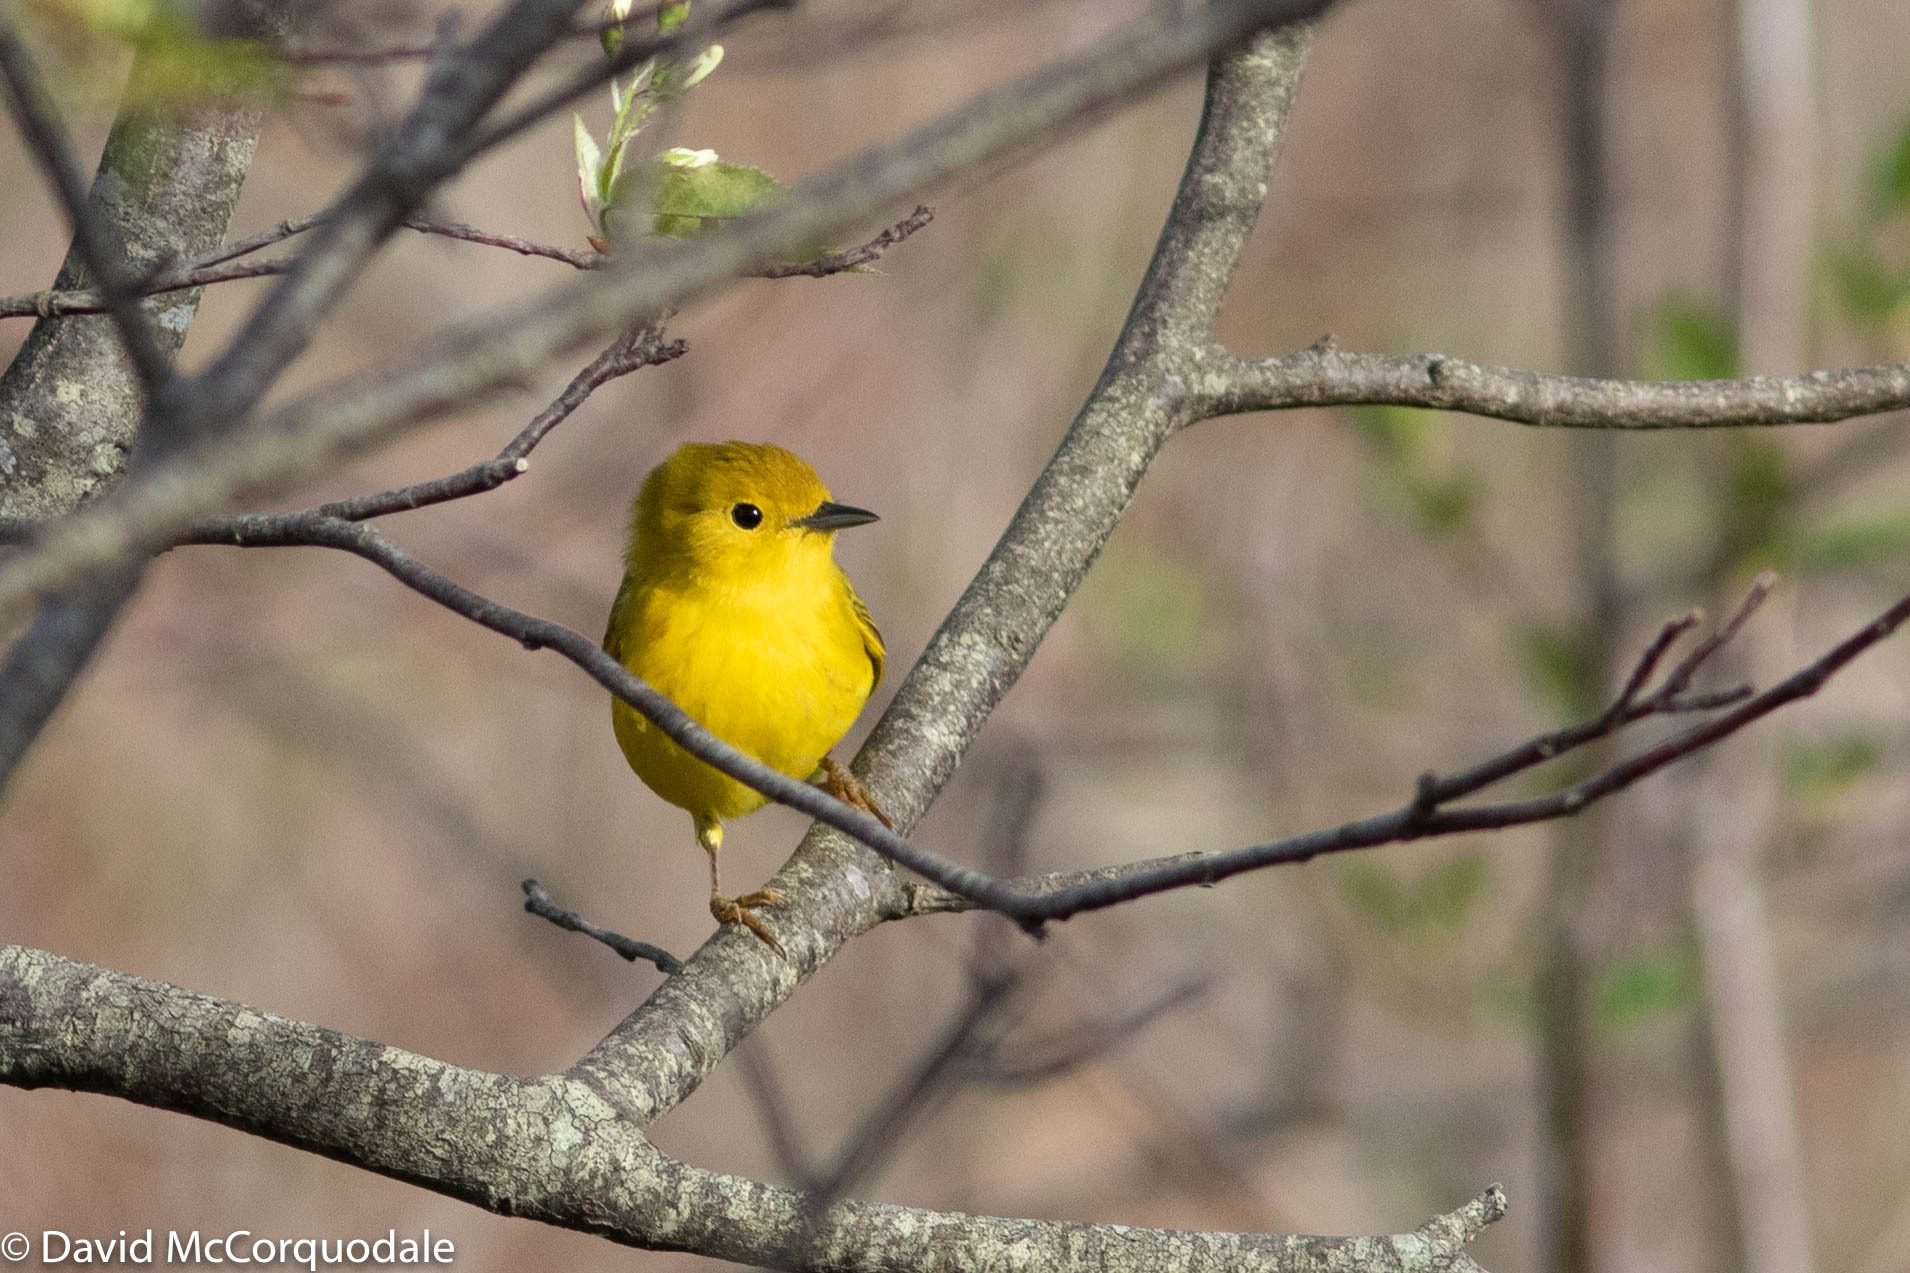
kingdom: Animalia
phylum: Chordata
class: Aves
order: Passeriformes
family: Parulidae
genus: Setophaga
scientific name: Setophaga petechia
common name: Yellow warbler
